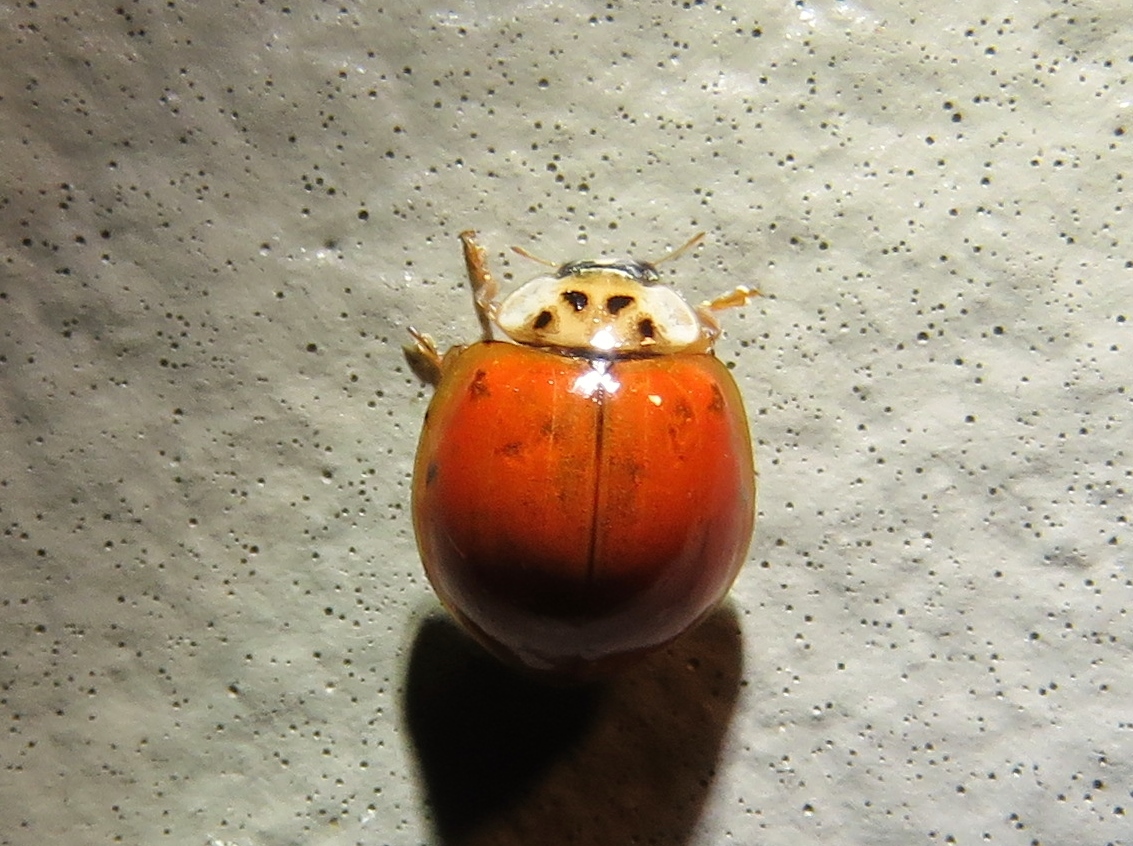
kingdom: Animalia
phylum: Arthropoda
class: Insecta
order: Coleoptera
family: Coccinellidae
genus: Harmonia
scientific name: Harmonia axyridis
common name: Harlequin ladybird
